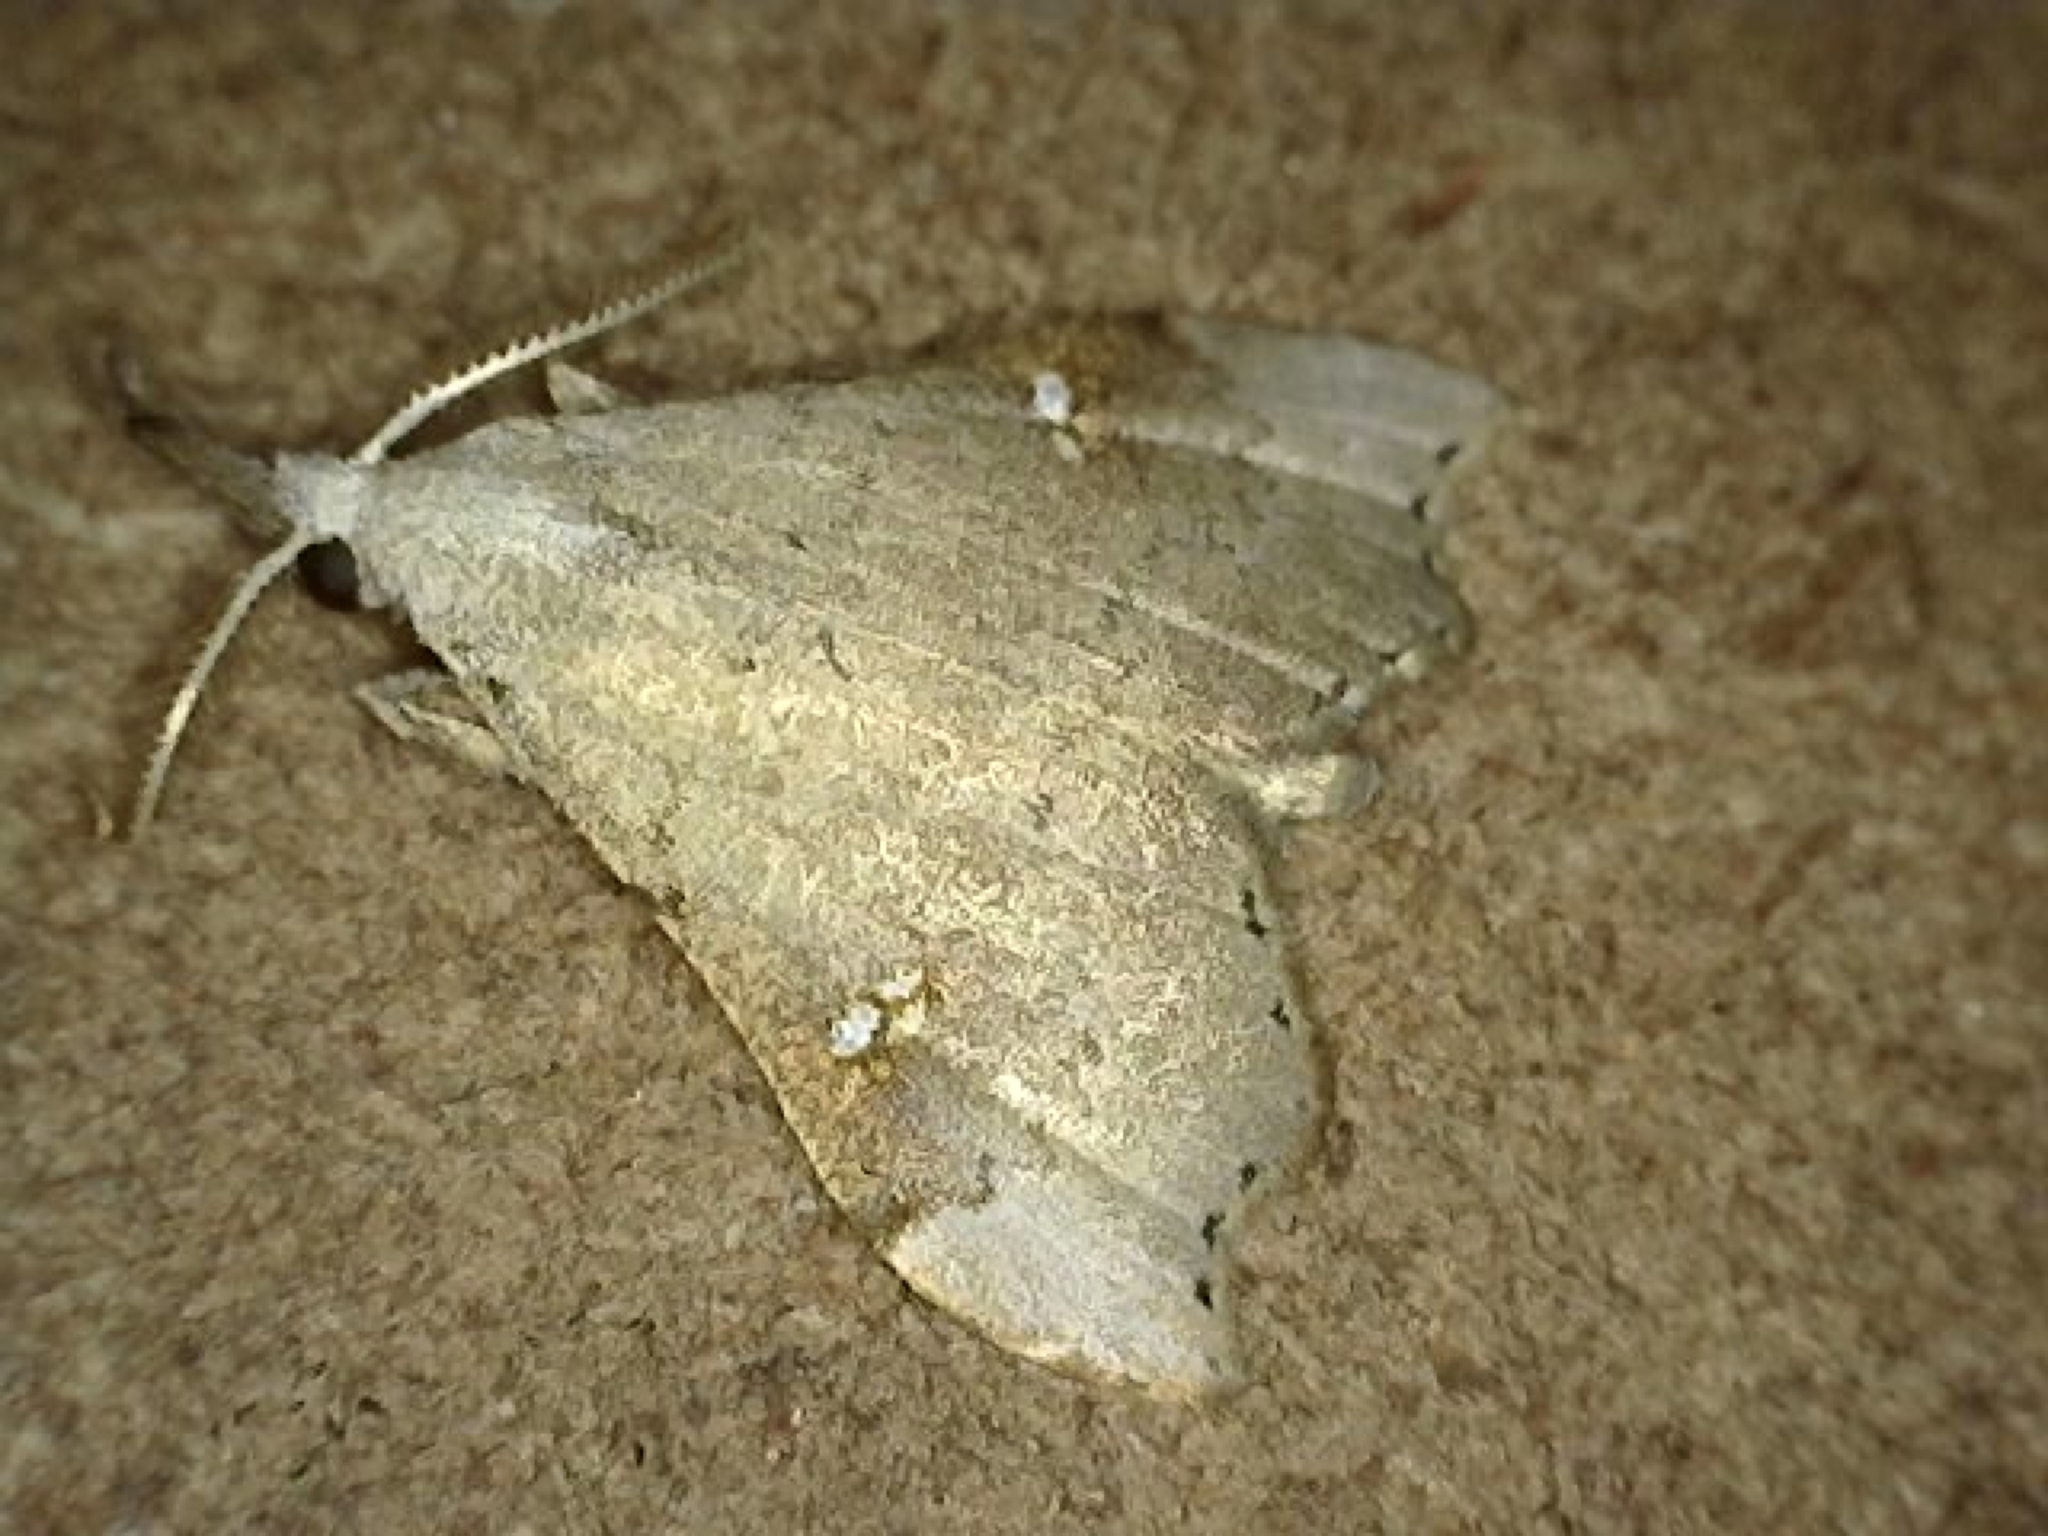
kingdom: Animalia
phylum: Arthropoda
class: Insecta
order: Lepidoptera
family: Erebidae
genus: Redectis
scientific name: Redectis vitrea
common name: White-spotted redectis
